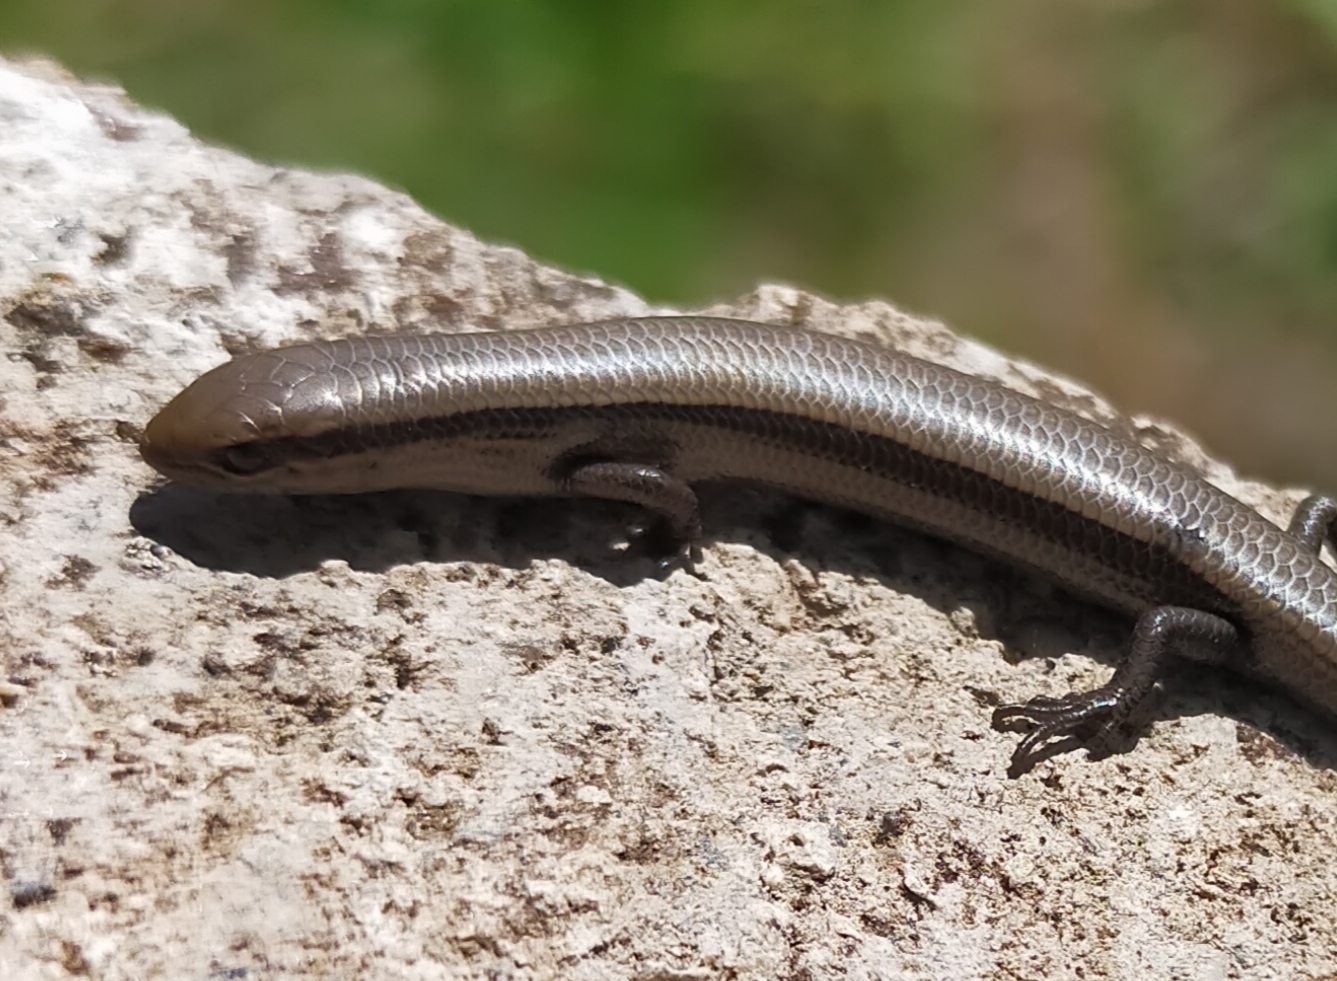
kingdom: Animalia
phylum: Chordata
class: Squamata
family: Scincidae
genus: Ablepharus
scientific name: Ablepharus kitaibelii
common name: Juniper skink
